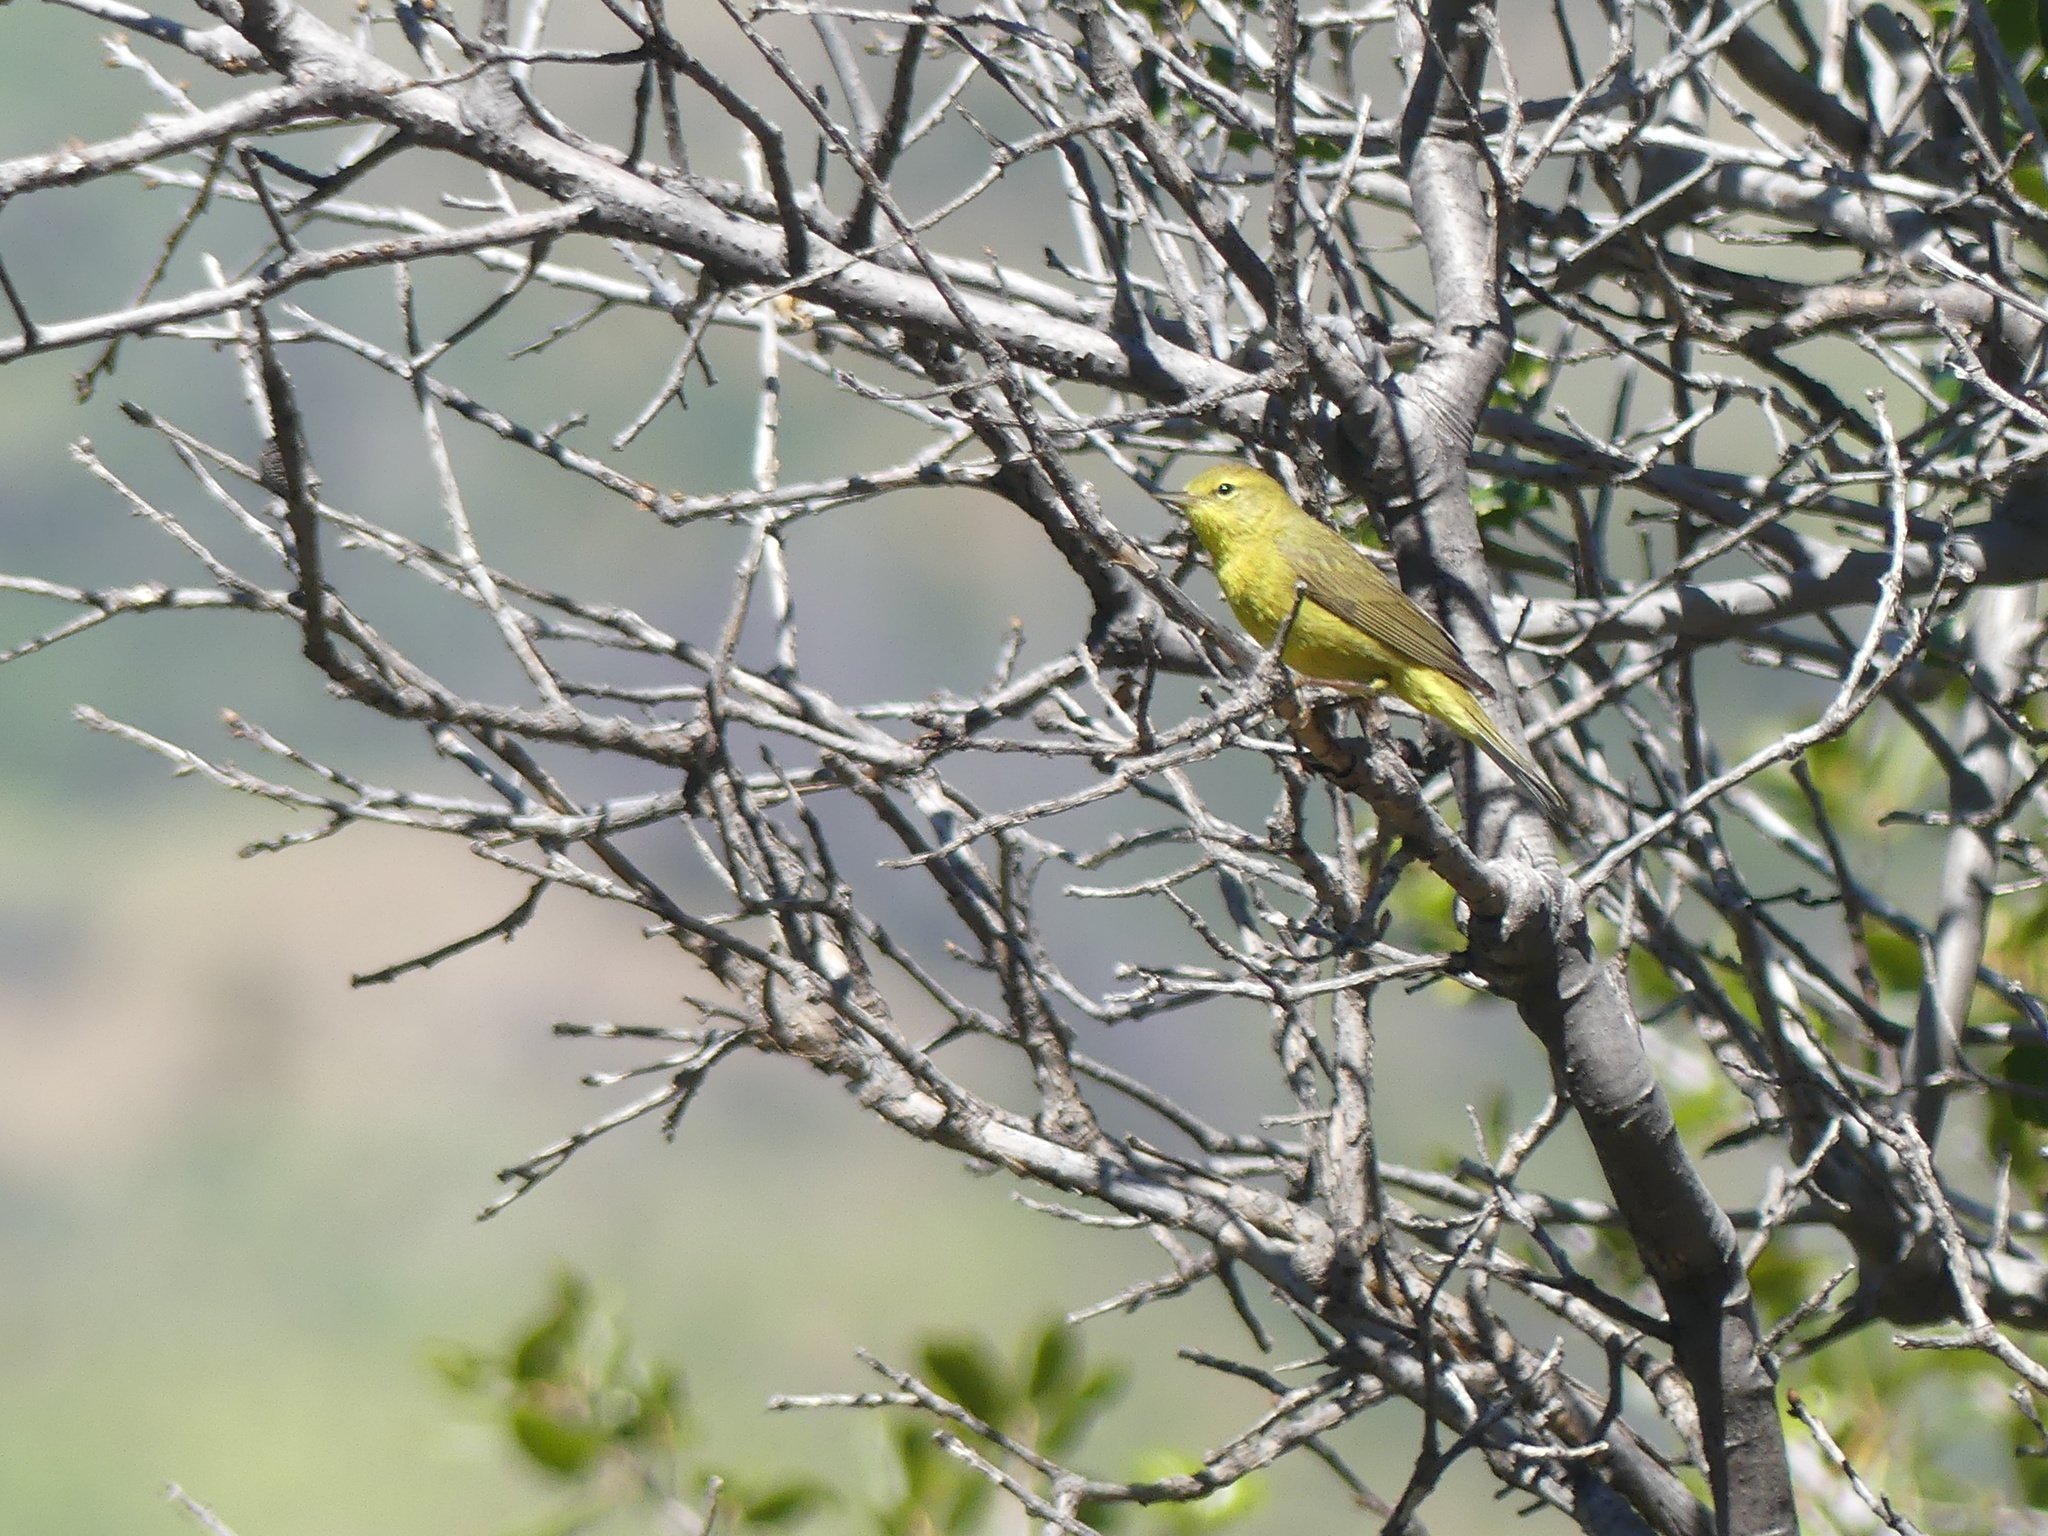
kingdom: Animalia
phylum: Chordata
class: Aves
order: Passeriformes
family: Parulidae
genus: Leiothlypis
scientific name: Leiothlypis celata
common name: Orange-crowned warbler
